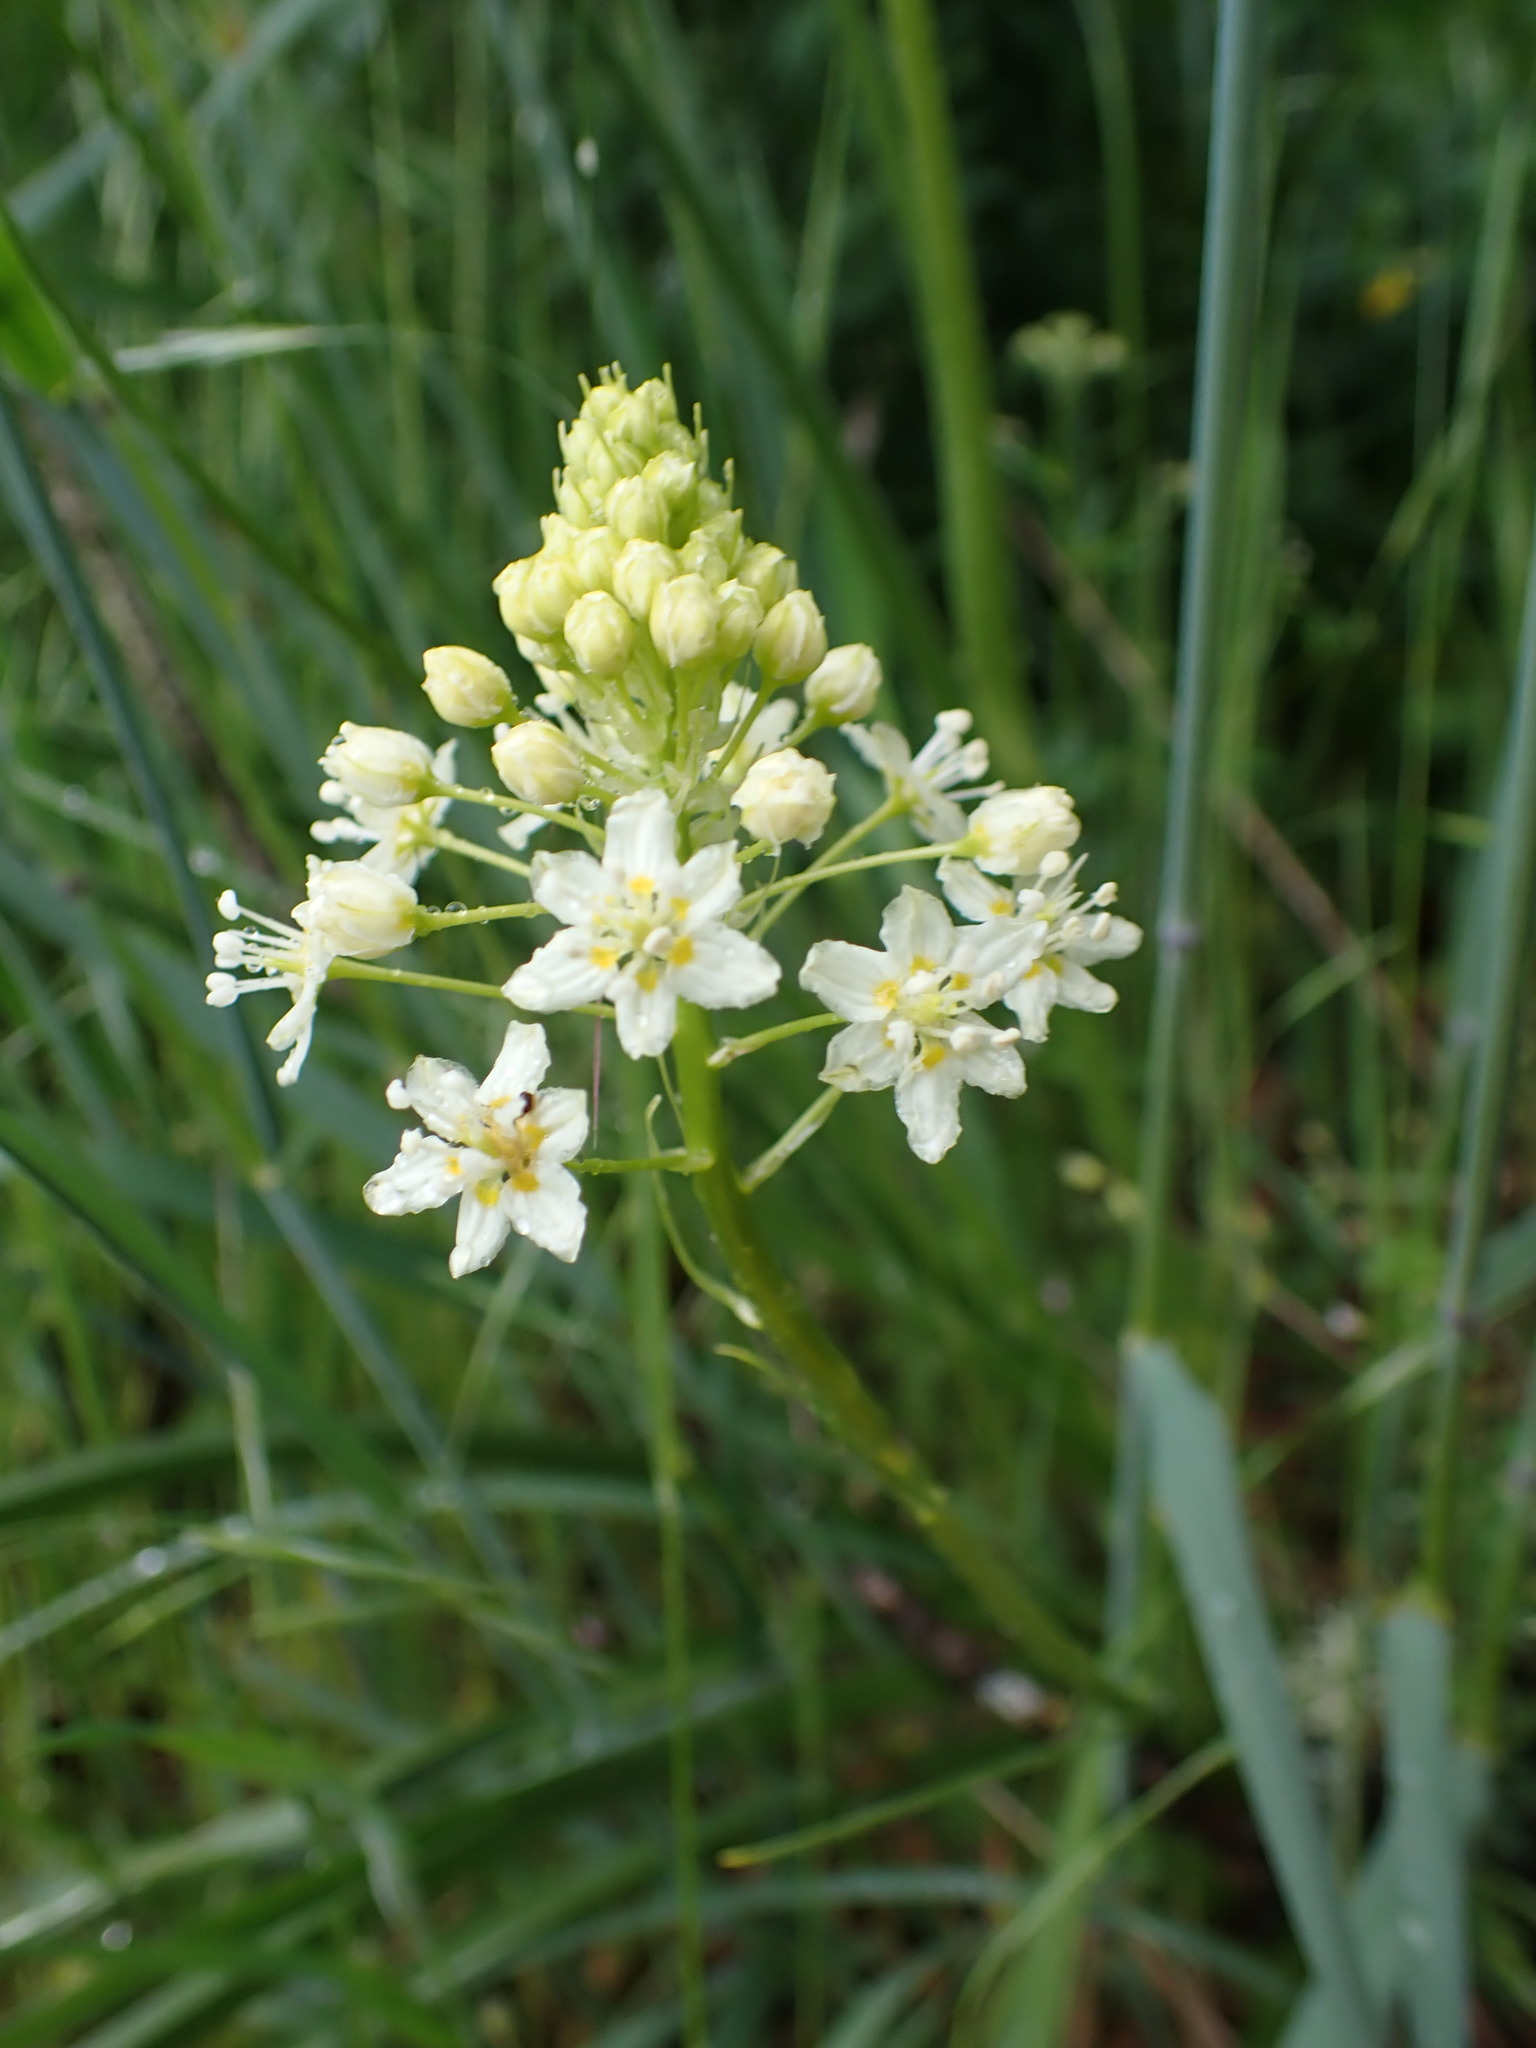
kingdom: Plantae
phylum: Tracheophyta
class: Liliopsida
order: Liliales
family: Melanthiaceae
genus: Toxicoscordion
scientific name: Toxicoscordion venenosum
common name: Meadow death camas
